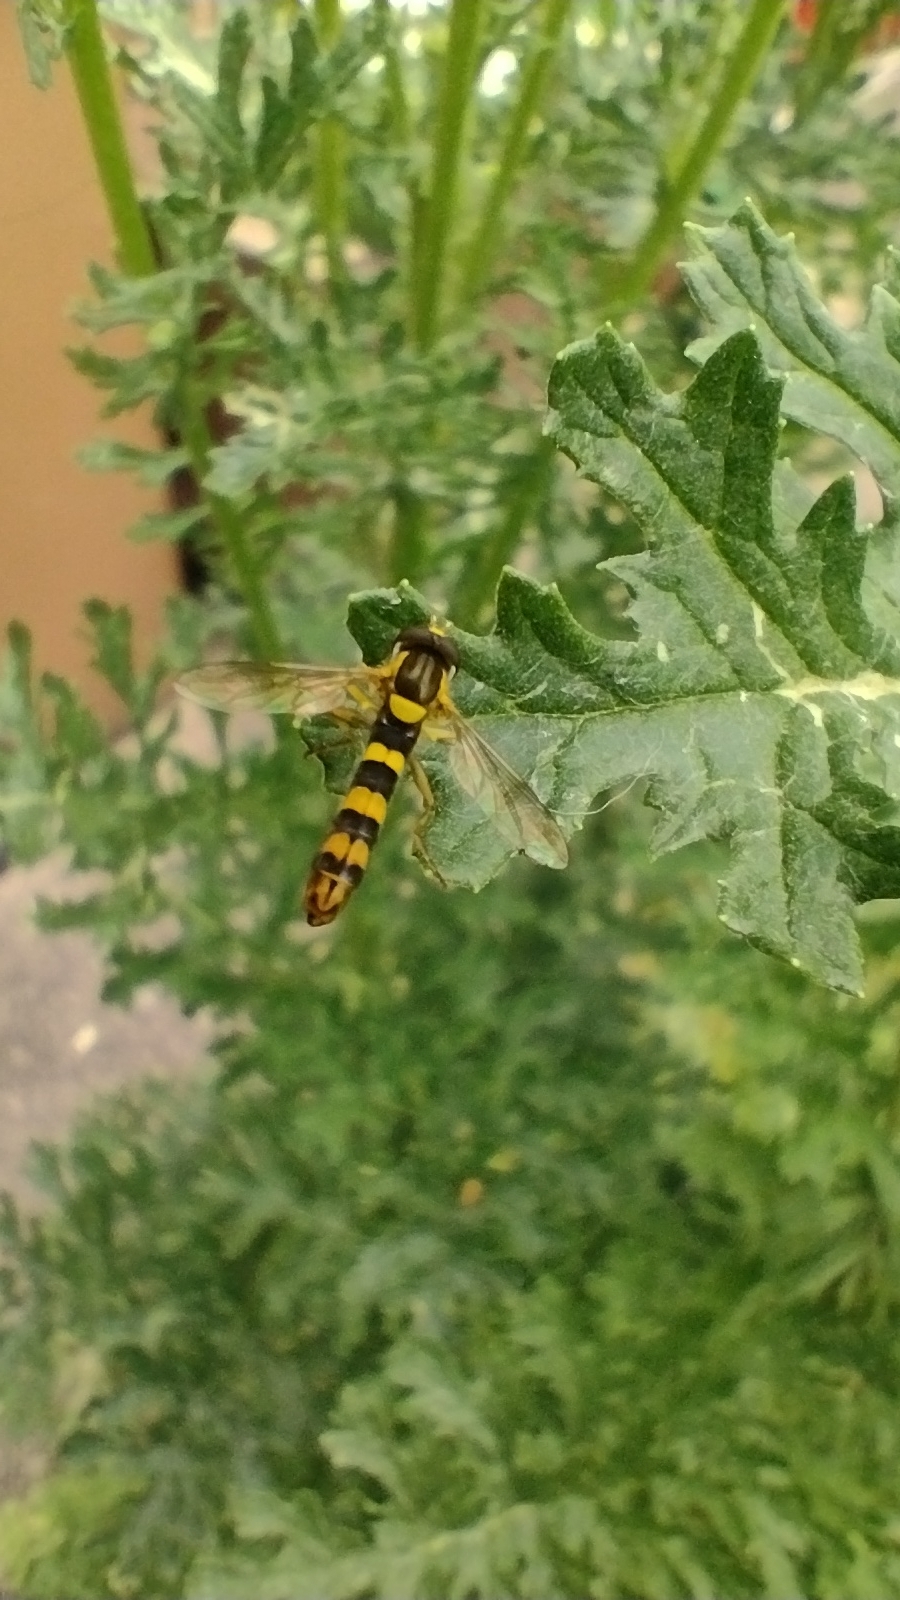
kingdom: Animalia
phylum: Arthropoda
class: Insecta
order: Diptera
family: Syrphidae
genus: Sphaerophoria
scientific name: Sphaerophoria scripta
